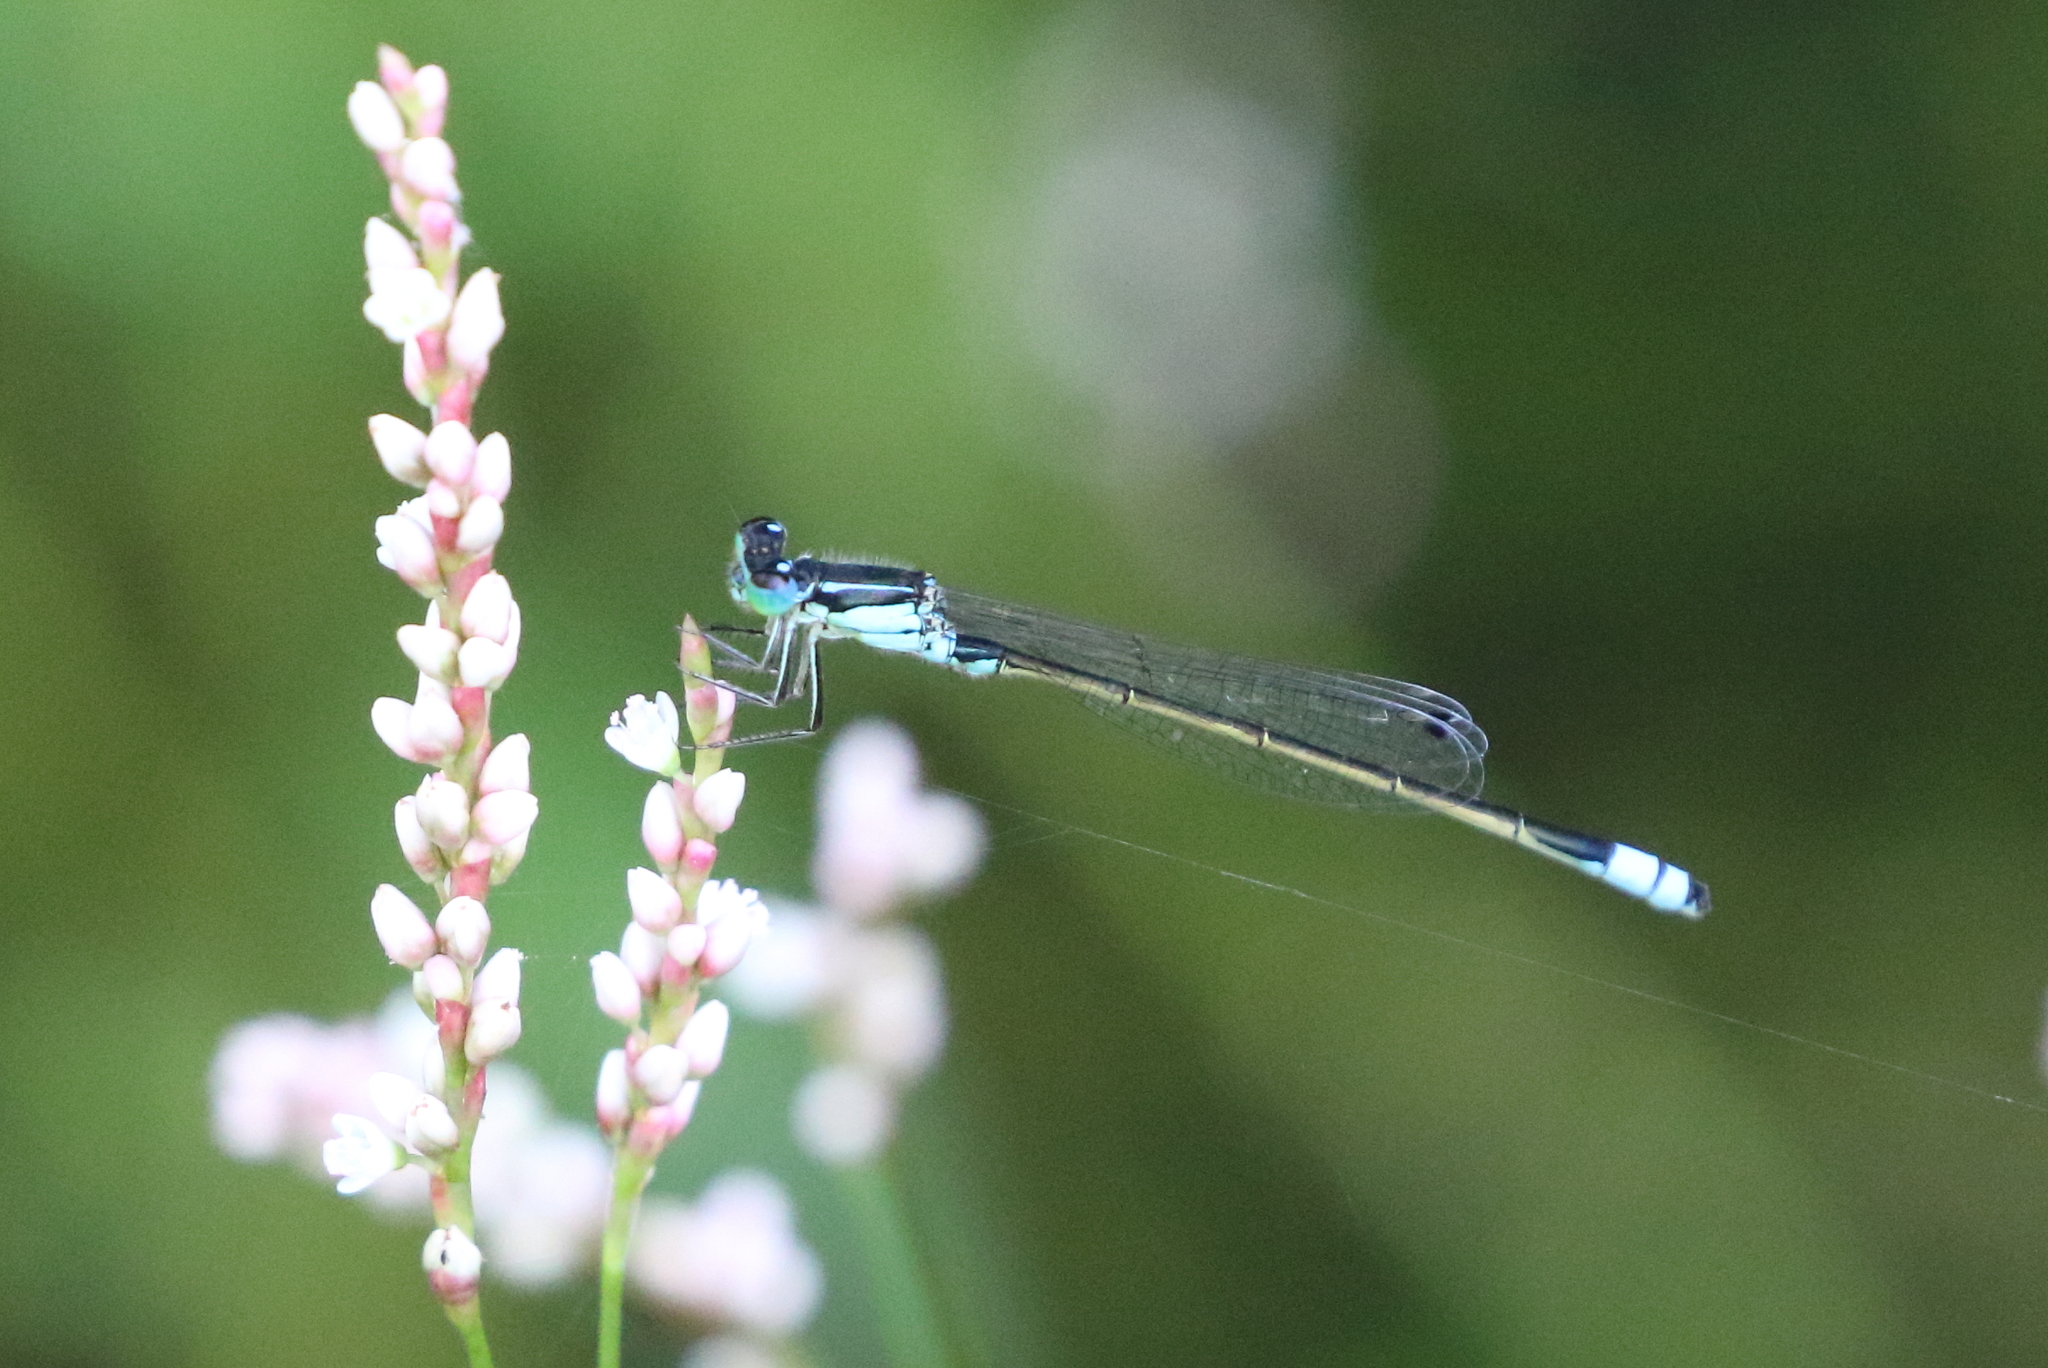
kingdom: Animalia
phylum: Arthropoda
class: Insecta
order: Odonata
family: Coenagrionidae
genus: Ischnura
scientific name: Ischnura heterosticta
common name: Common bluetail
